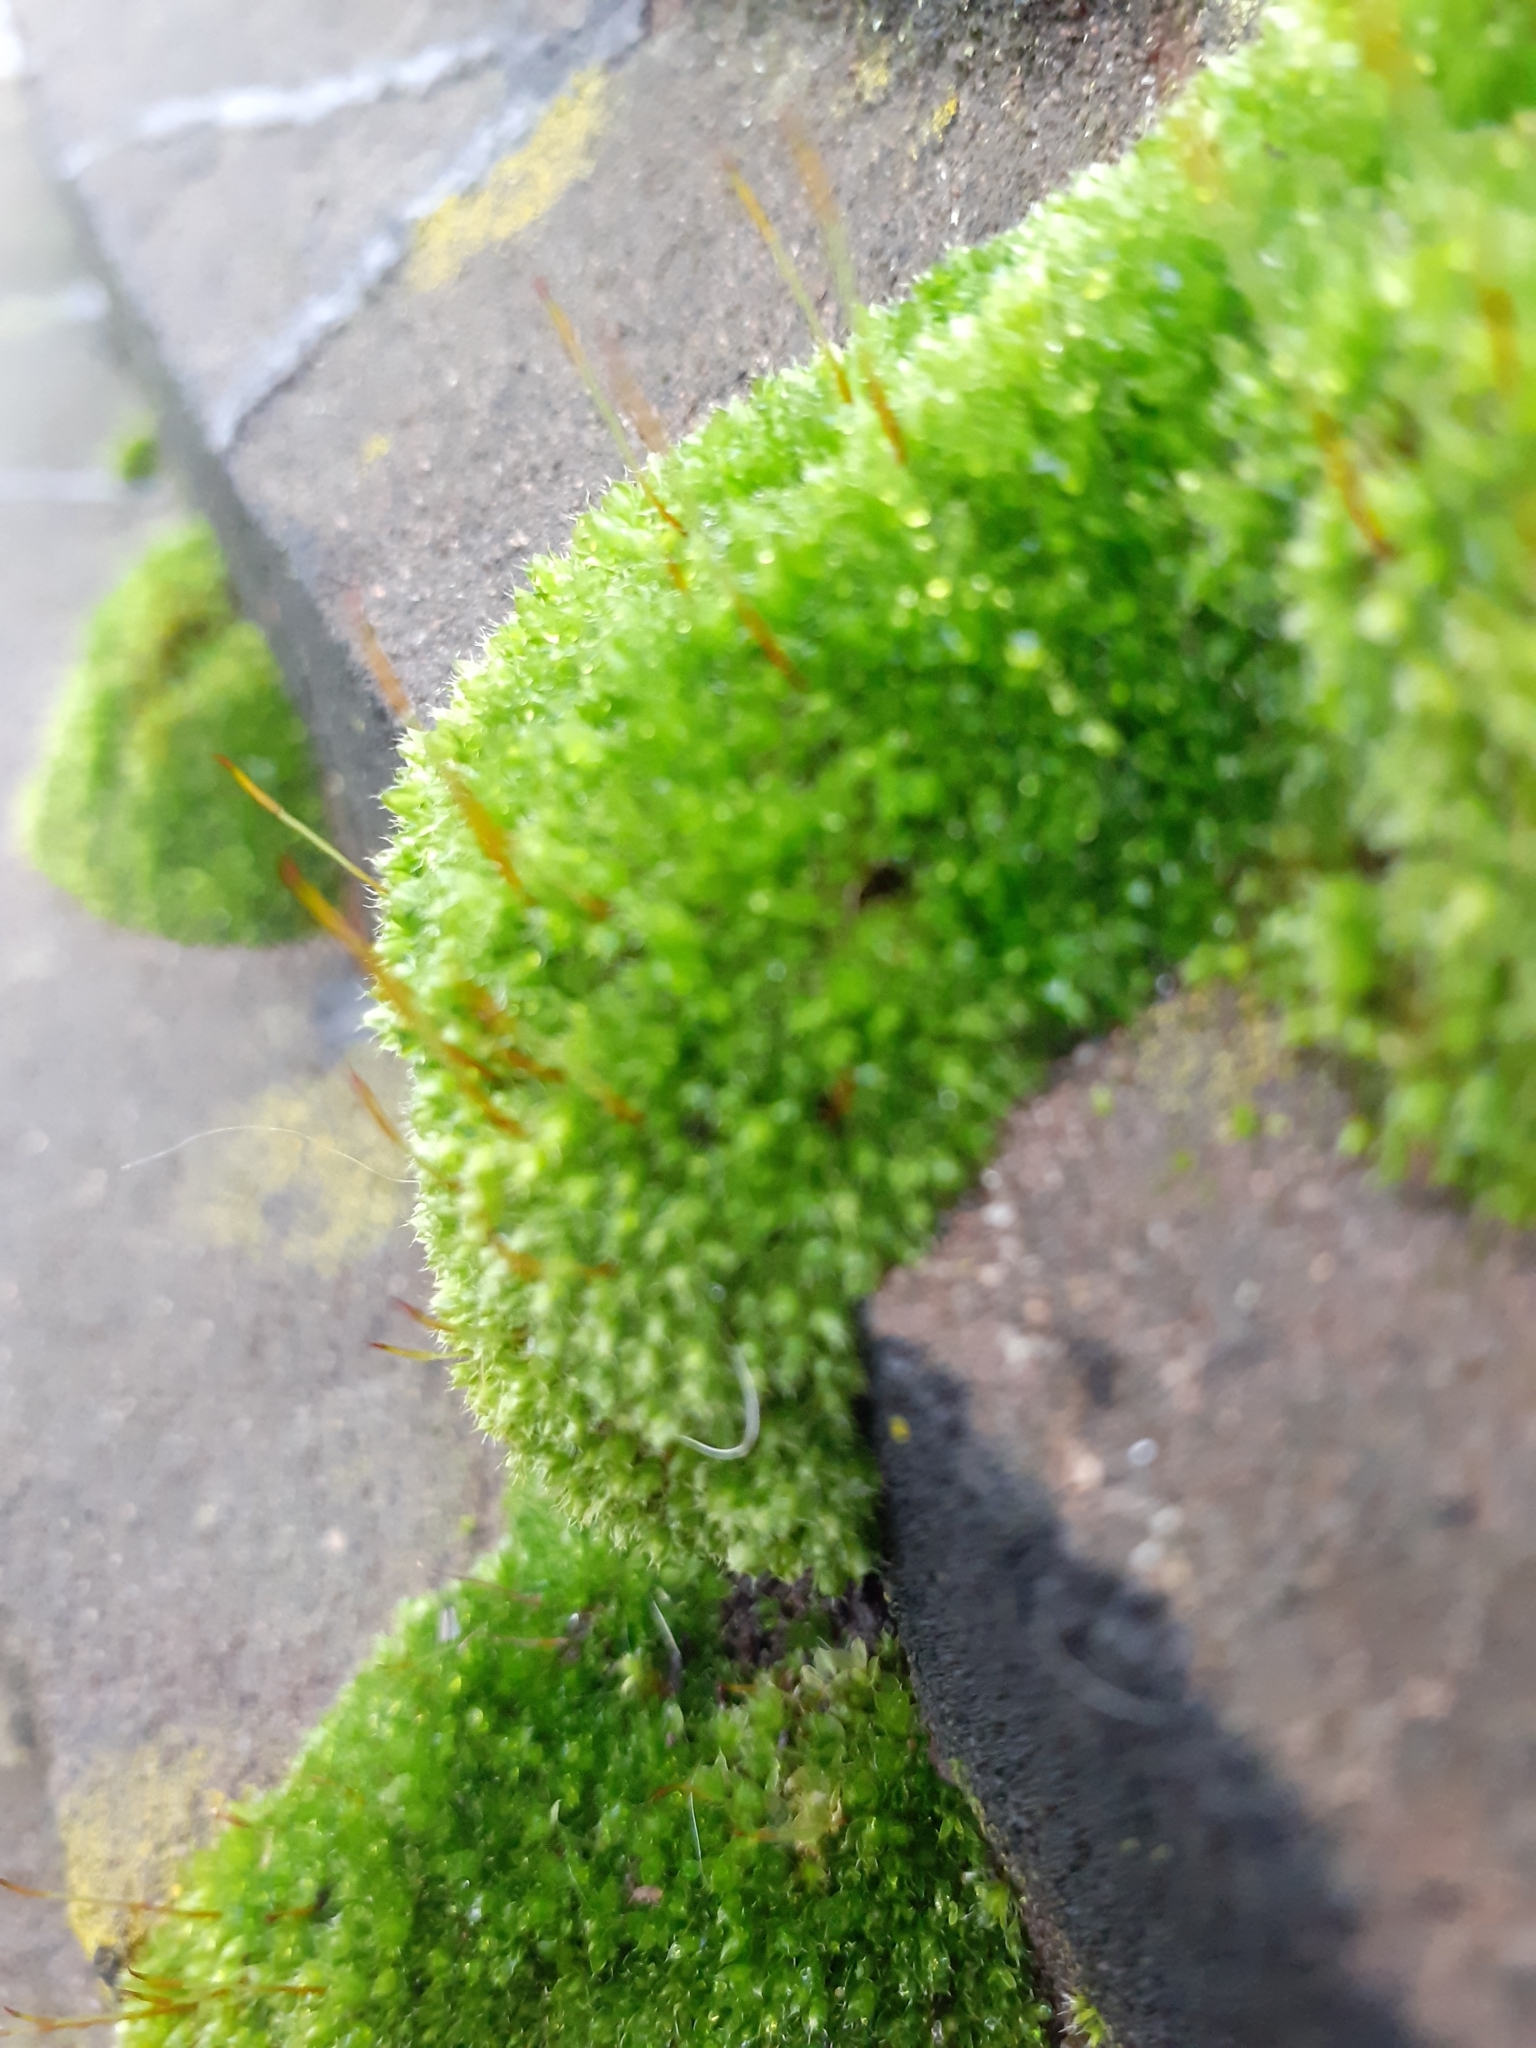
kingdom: Plantae
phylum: Bryophyta
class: Bryopsida
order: Bryales
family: Bryaceae
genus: Rosulabryum
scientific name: Rosulabryum capillare
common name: Capillary thread-moss
